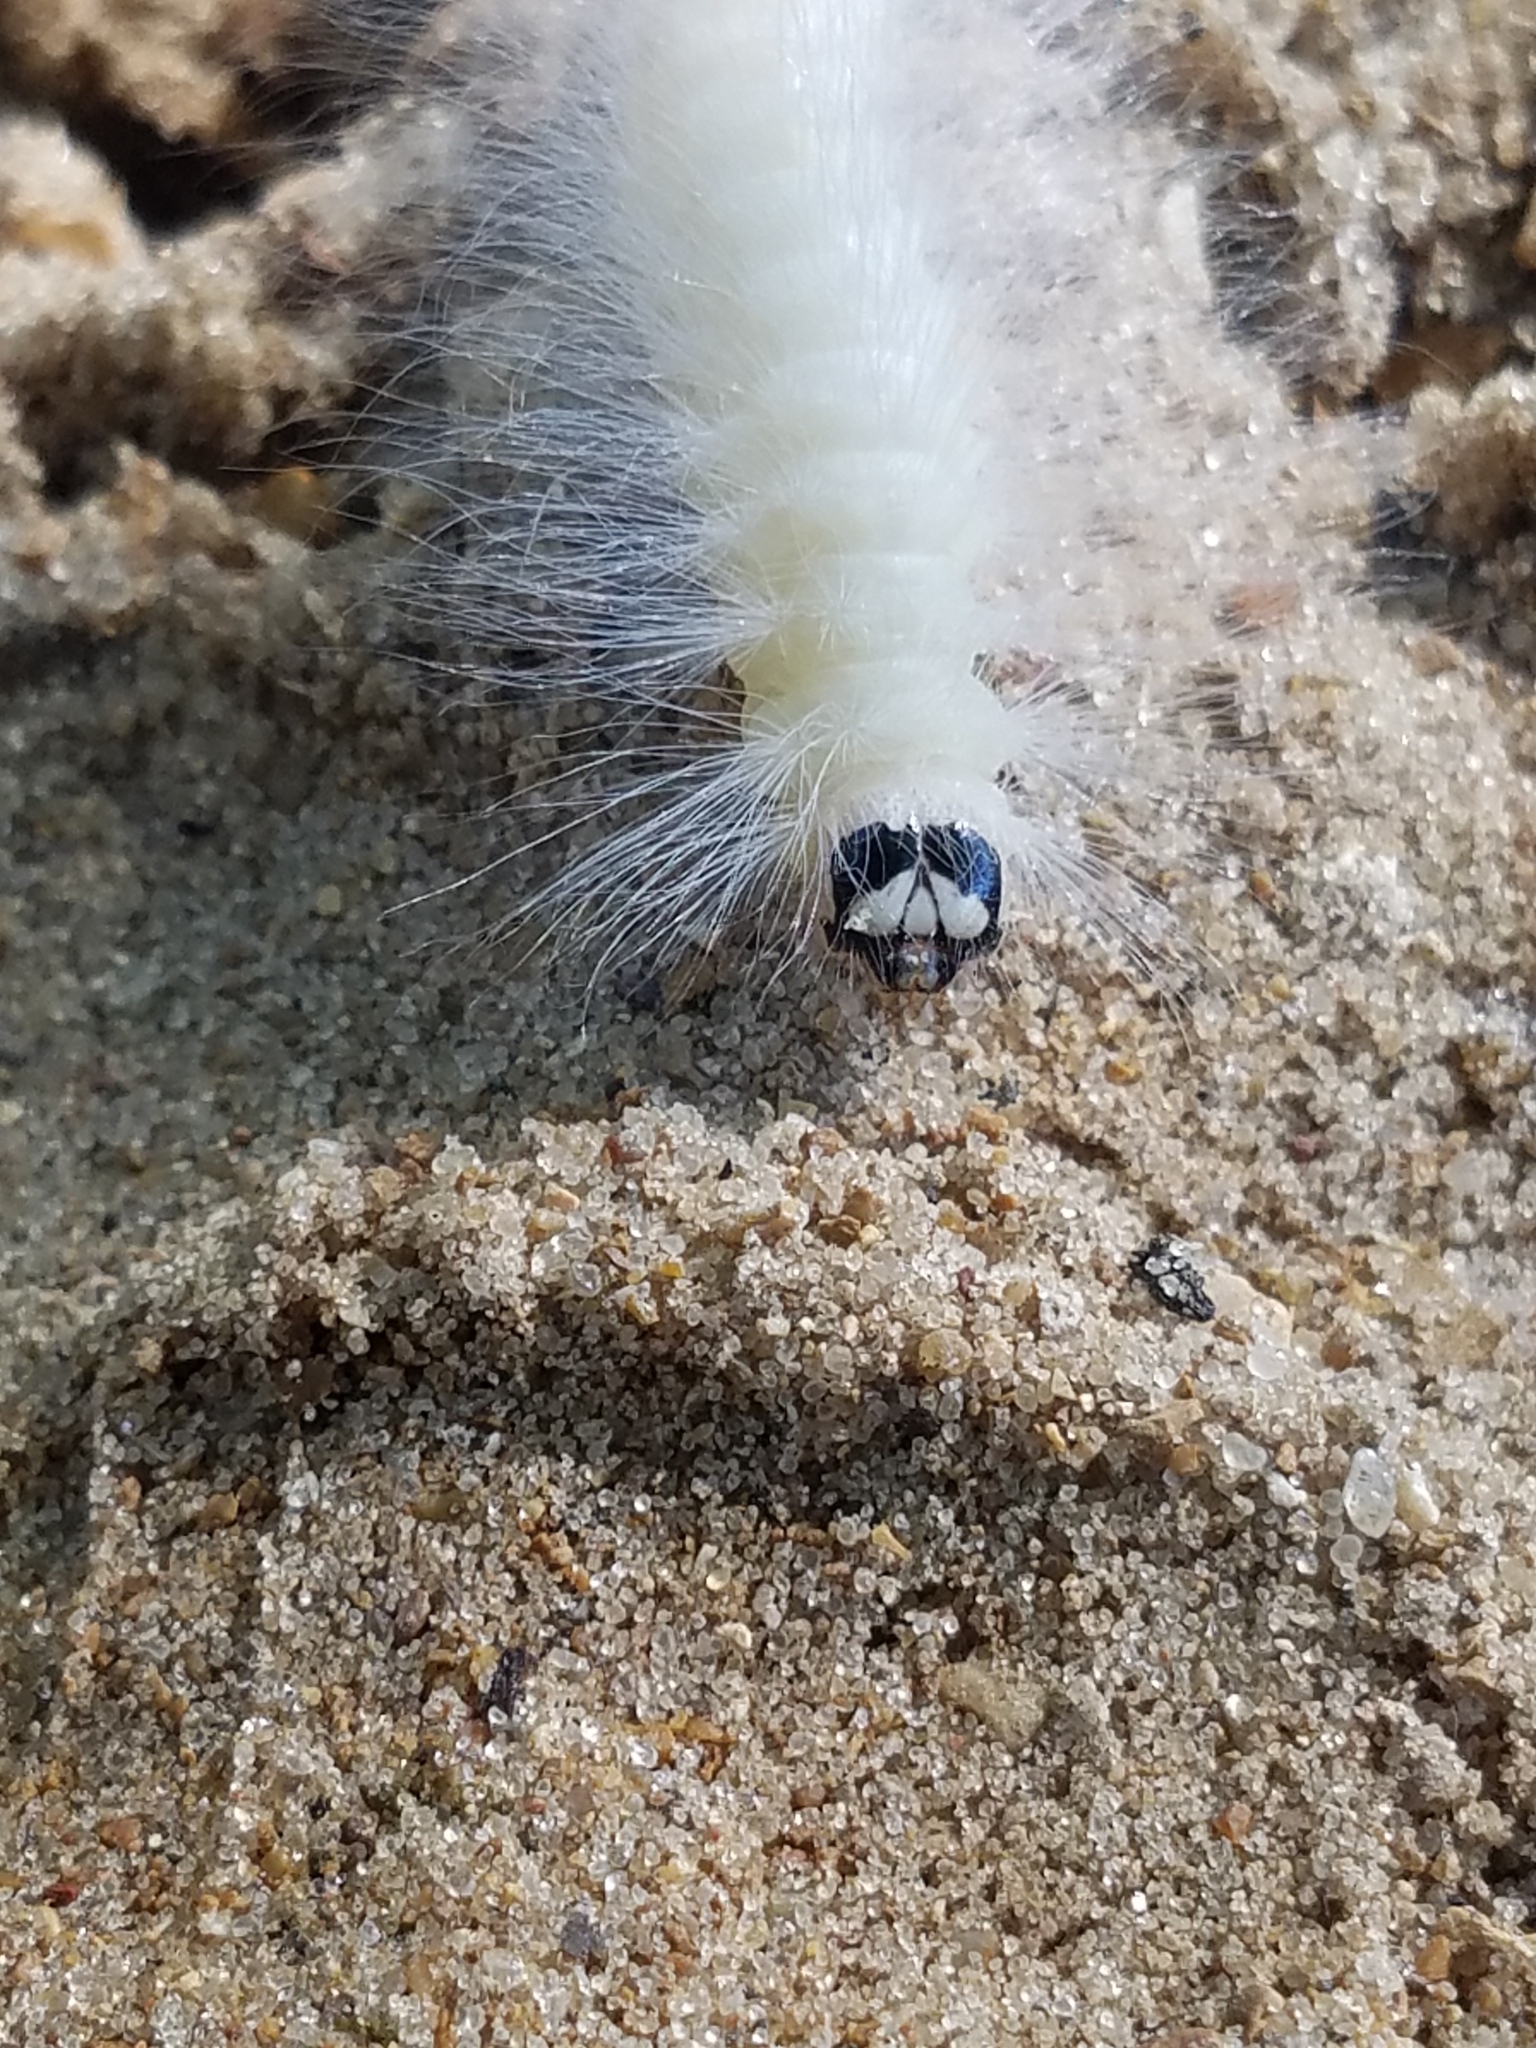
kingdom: Animalia
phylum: Arthropoda
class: Insecta
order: Lepidoptera
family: Noctuidae
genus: Charadra
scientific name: Charadra deridens
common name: Marbled tuffet
